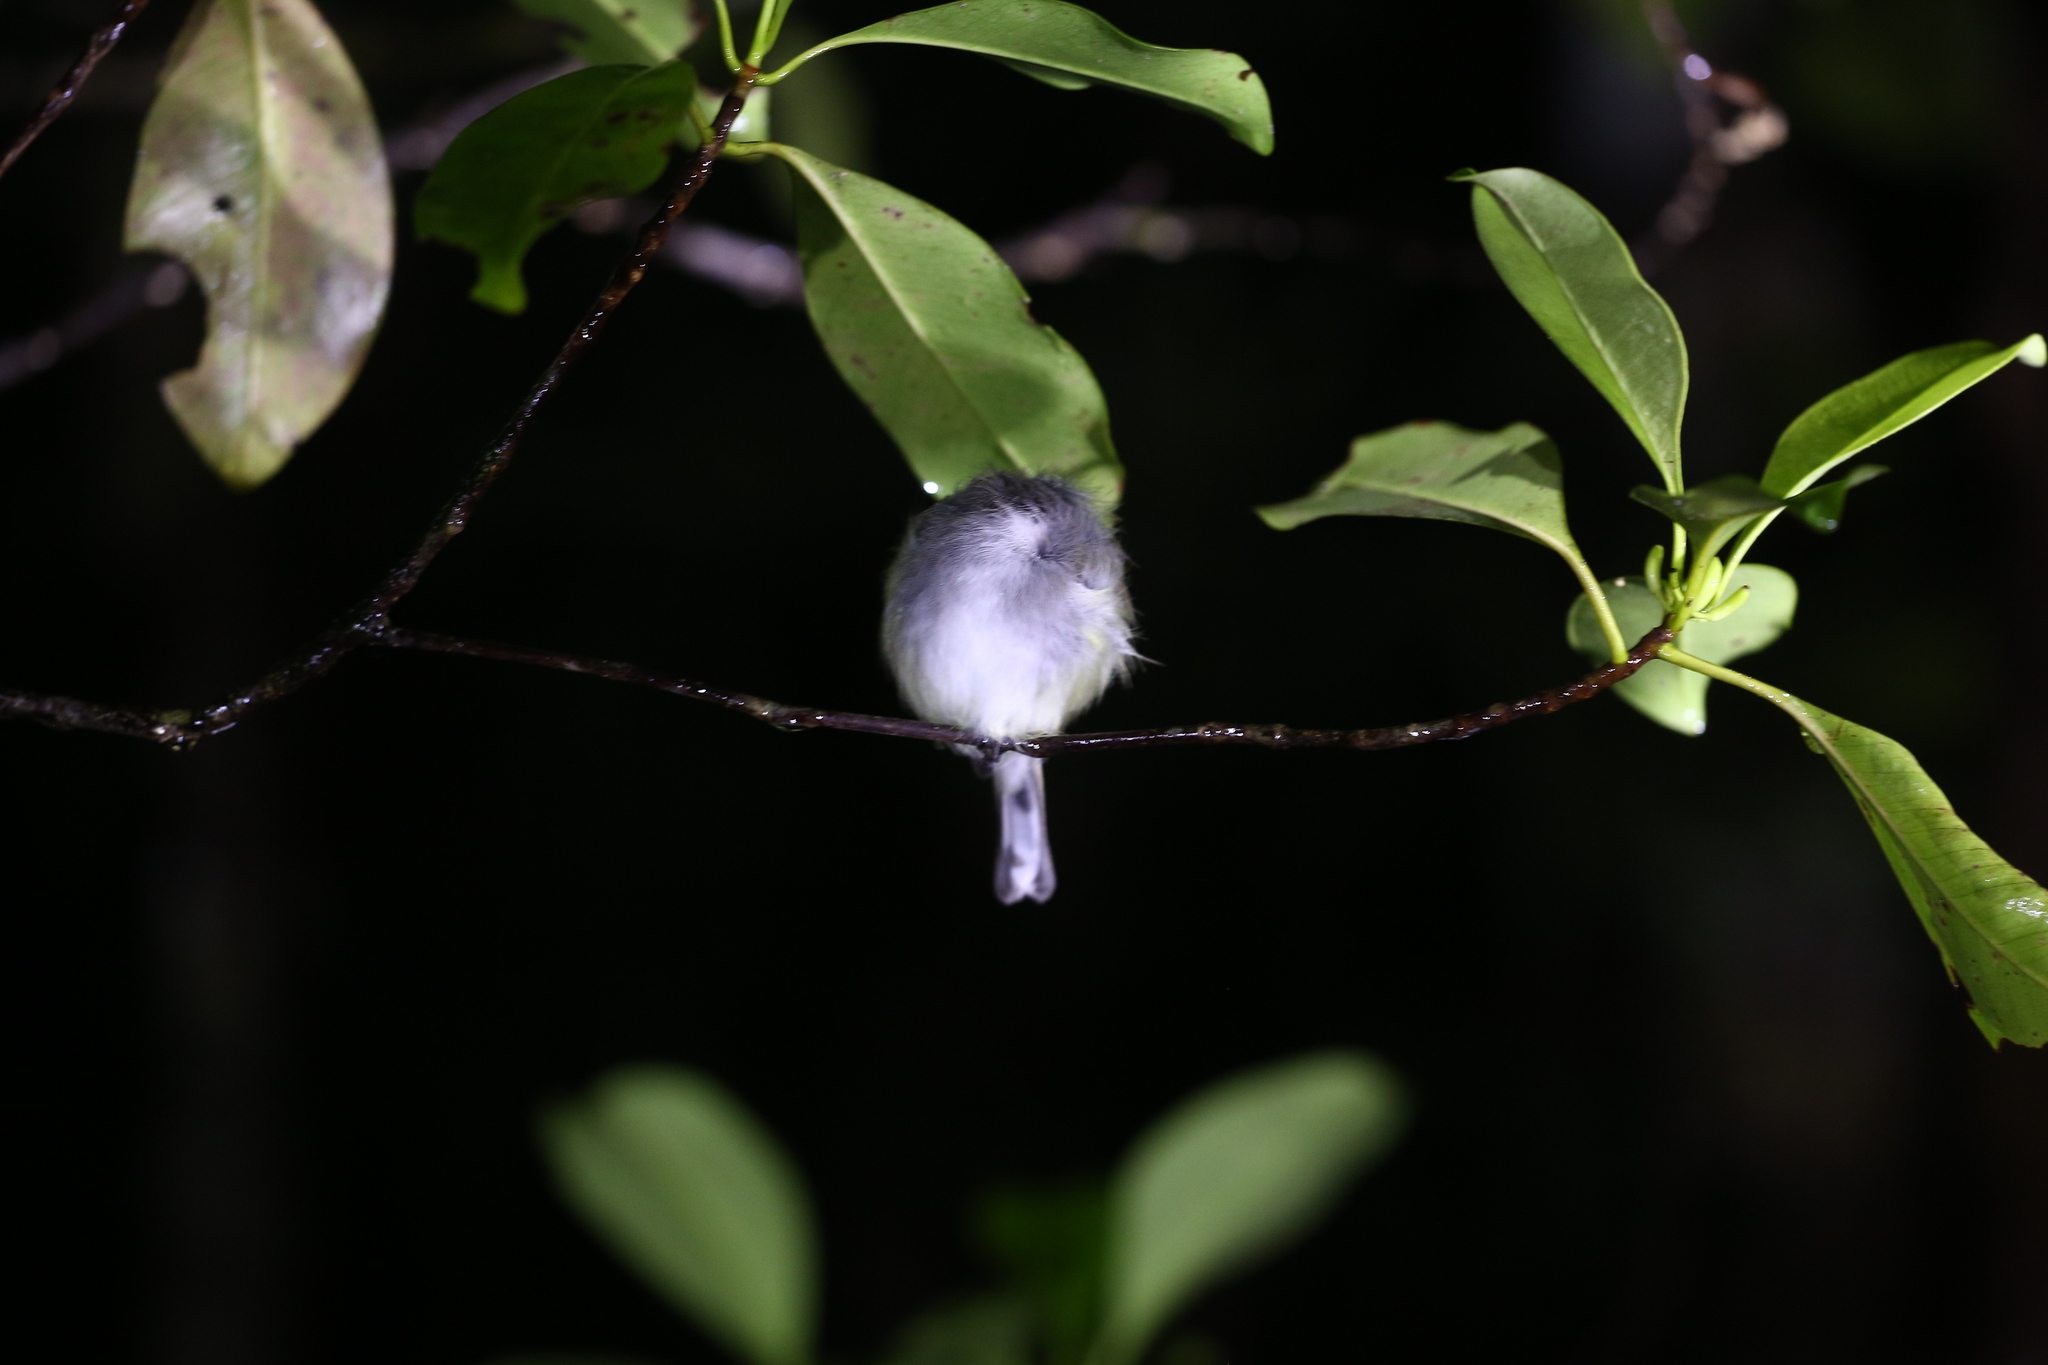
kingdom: Animalia
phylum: Chordata
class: Aves
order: Passeriformes
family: Acanthizidae
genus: Gerygone
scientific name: Gerygone flavolateralis
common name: Fan-tailed gerygone
